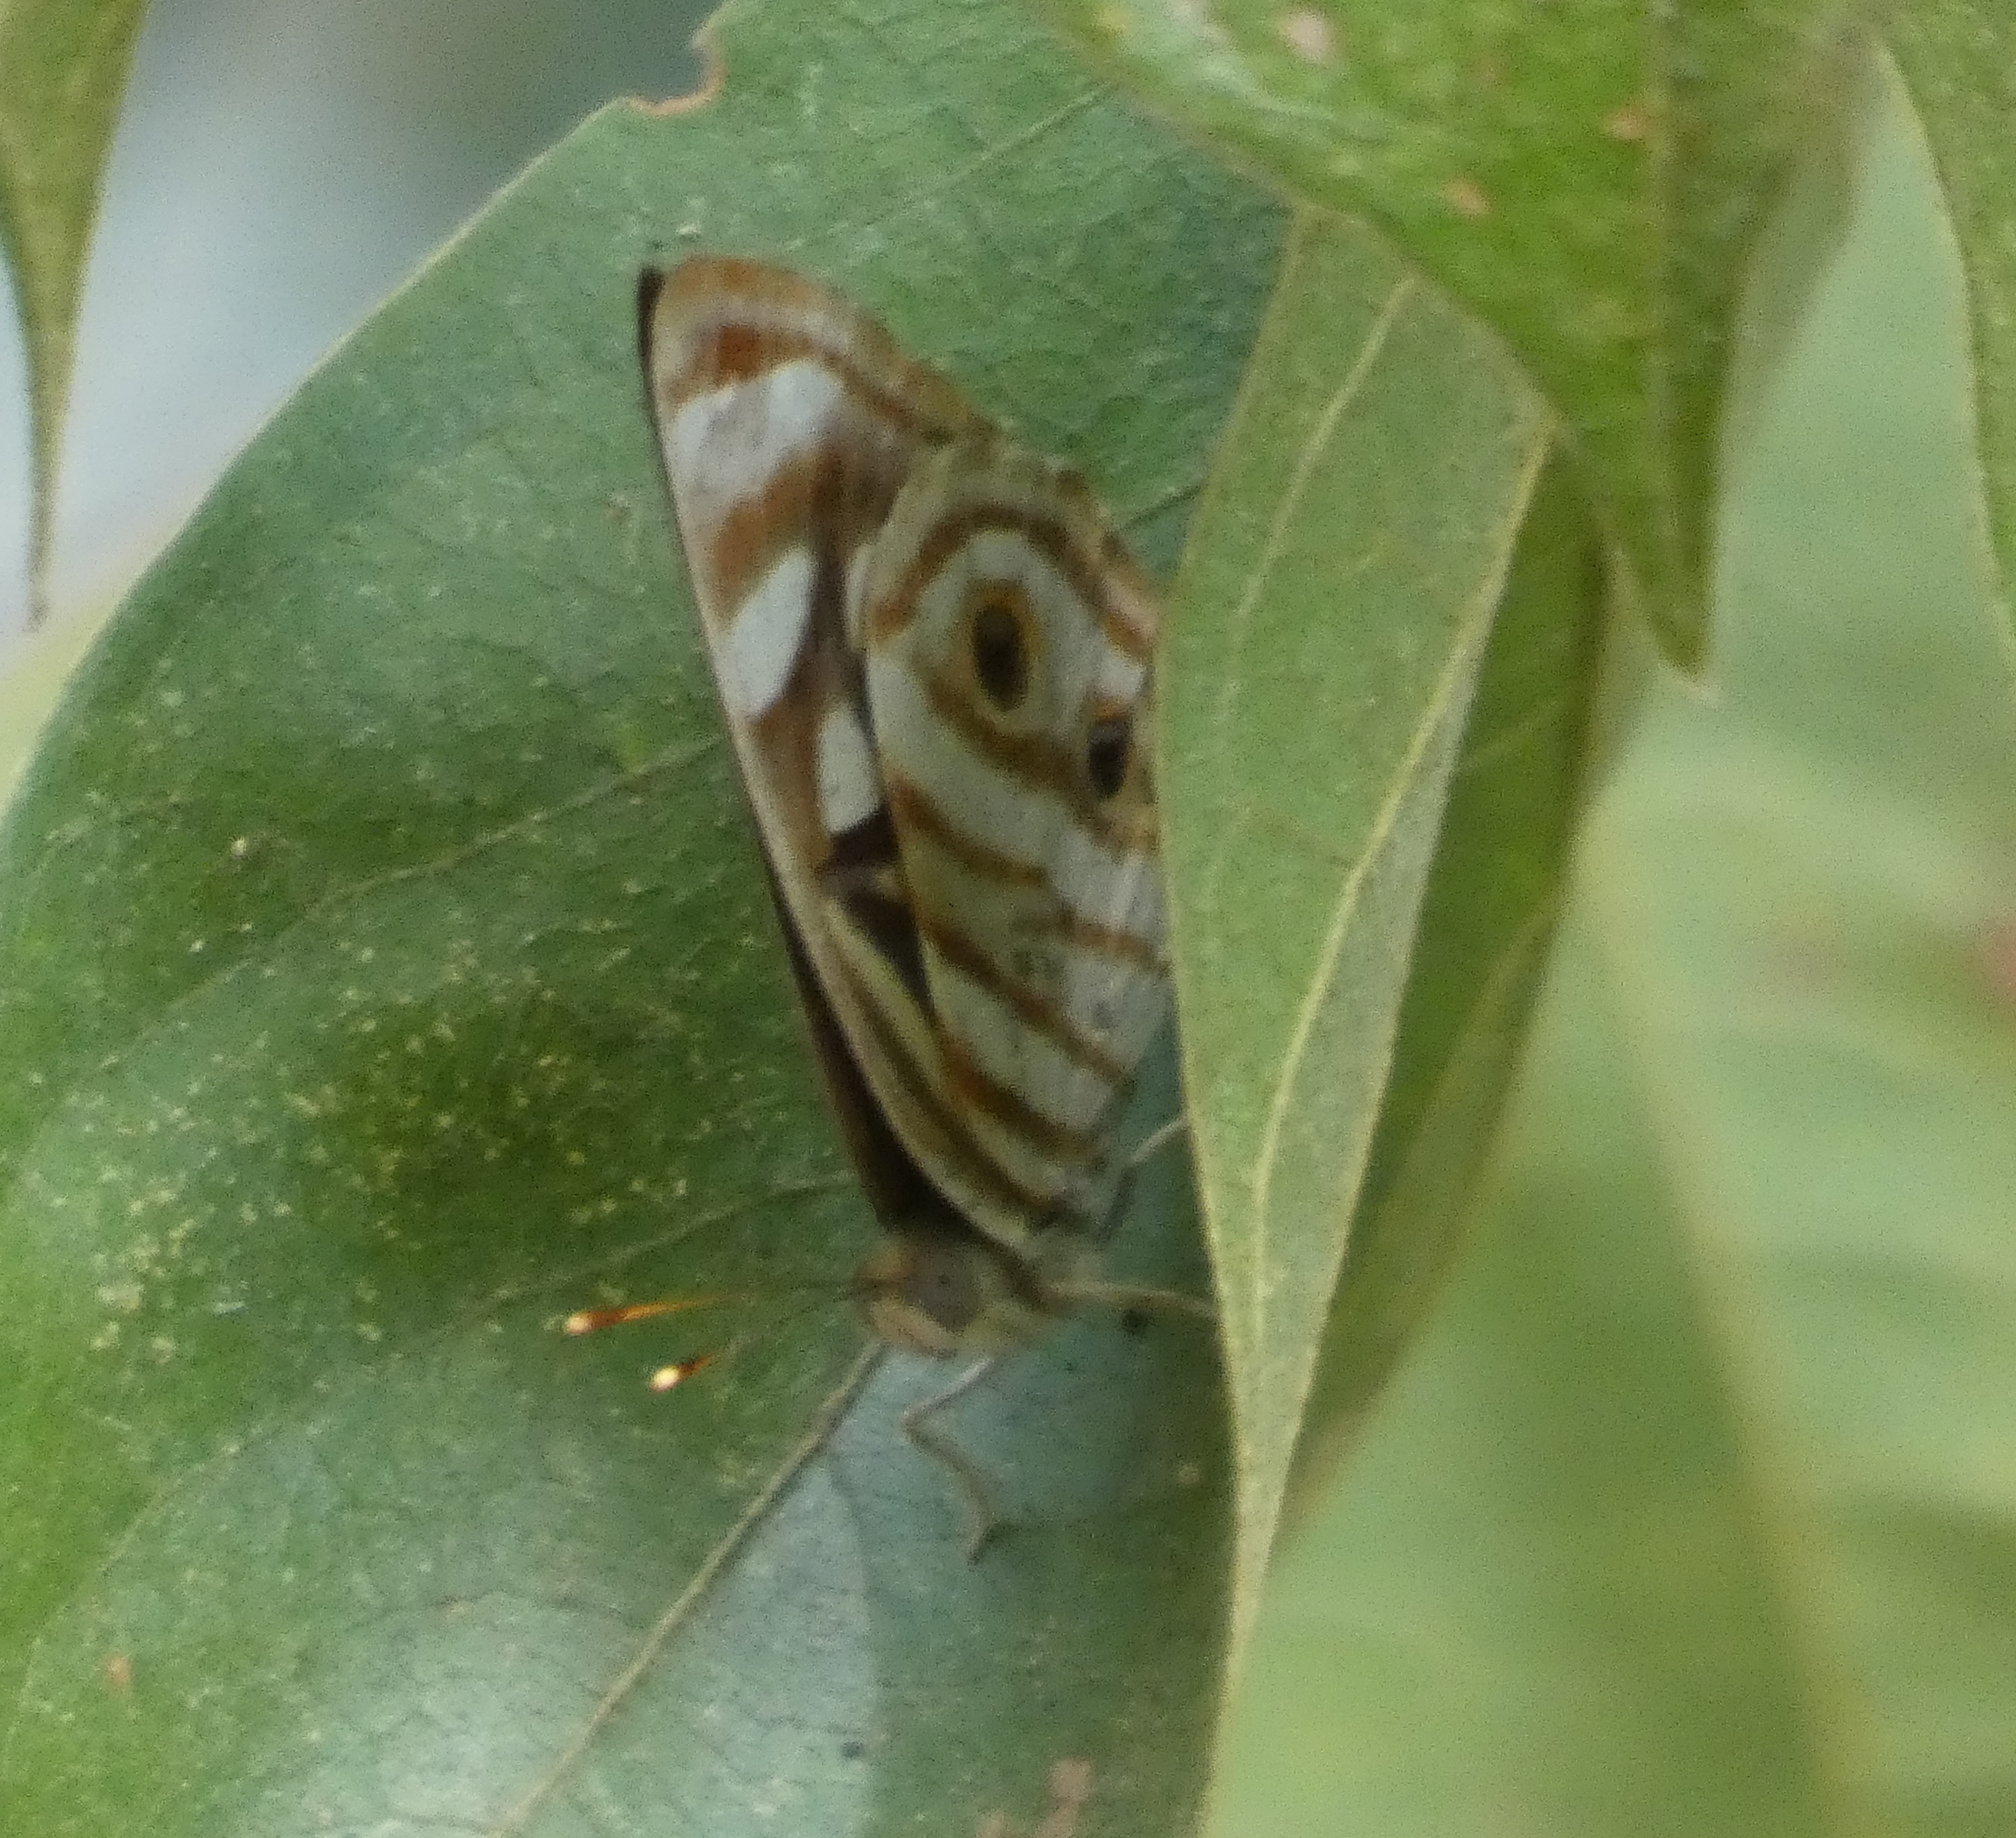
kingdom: Animalia
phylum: Arthropoda
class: Insecta
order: Lepidoptera
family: Nymphalidae
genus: Dynamine
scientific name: Dynamine mylitta
